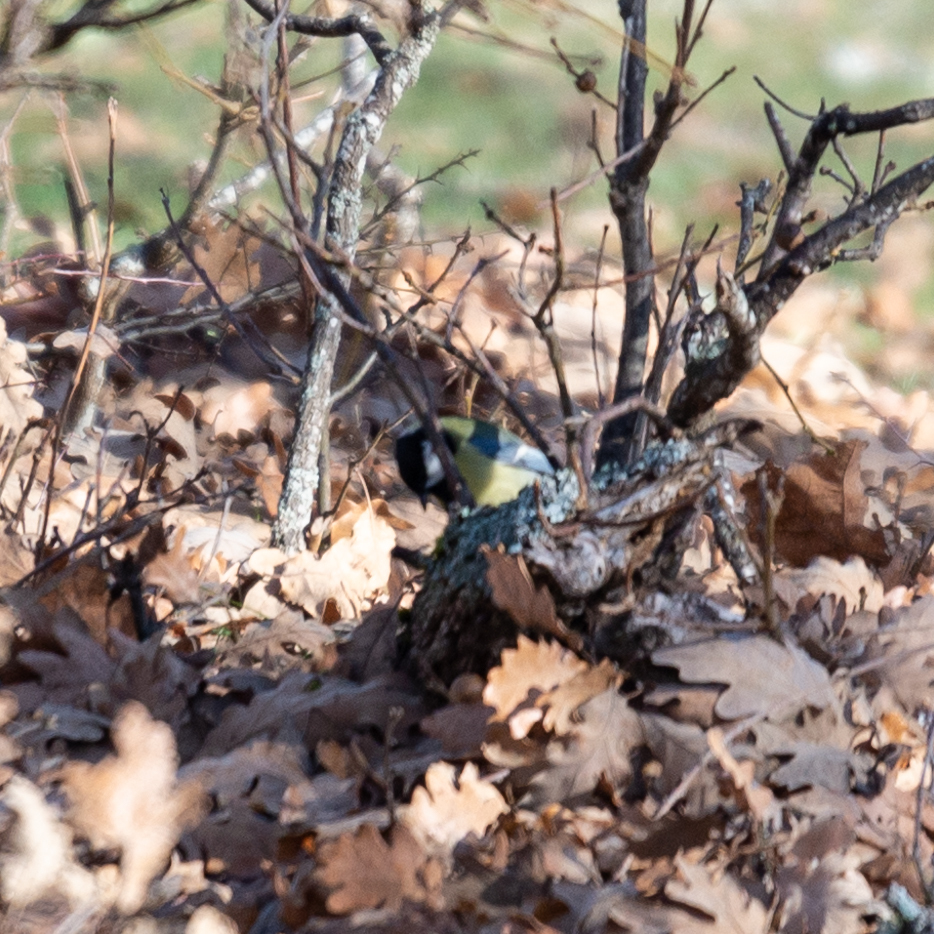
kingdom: Animalia
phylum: Chordata
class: Aves
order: Passeriformes
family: Paridae
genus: Parus
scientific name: Parus major
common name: Great tit
